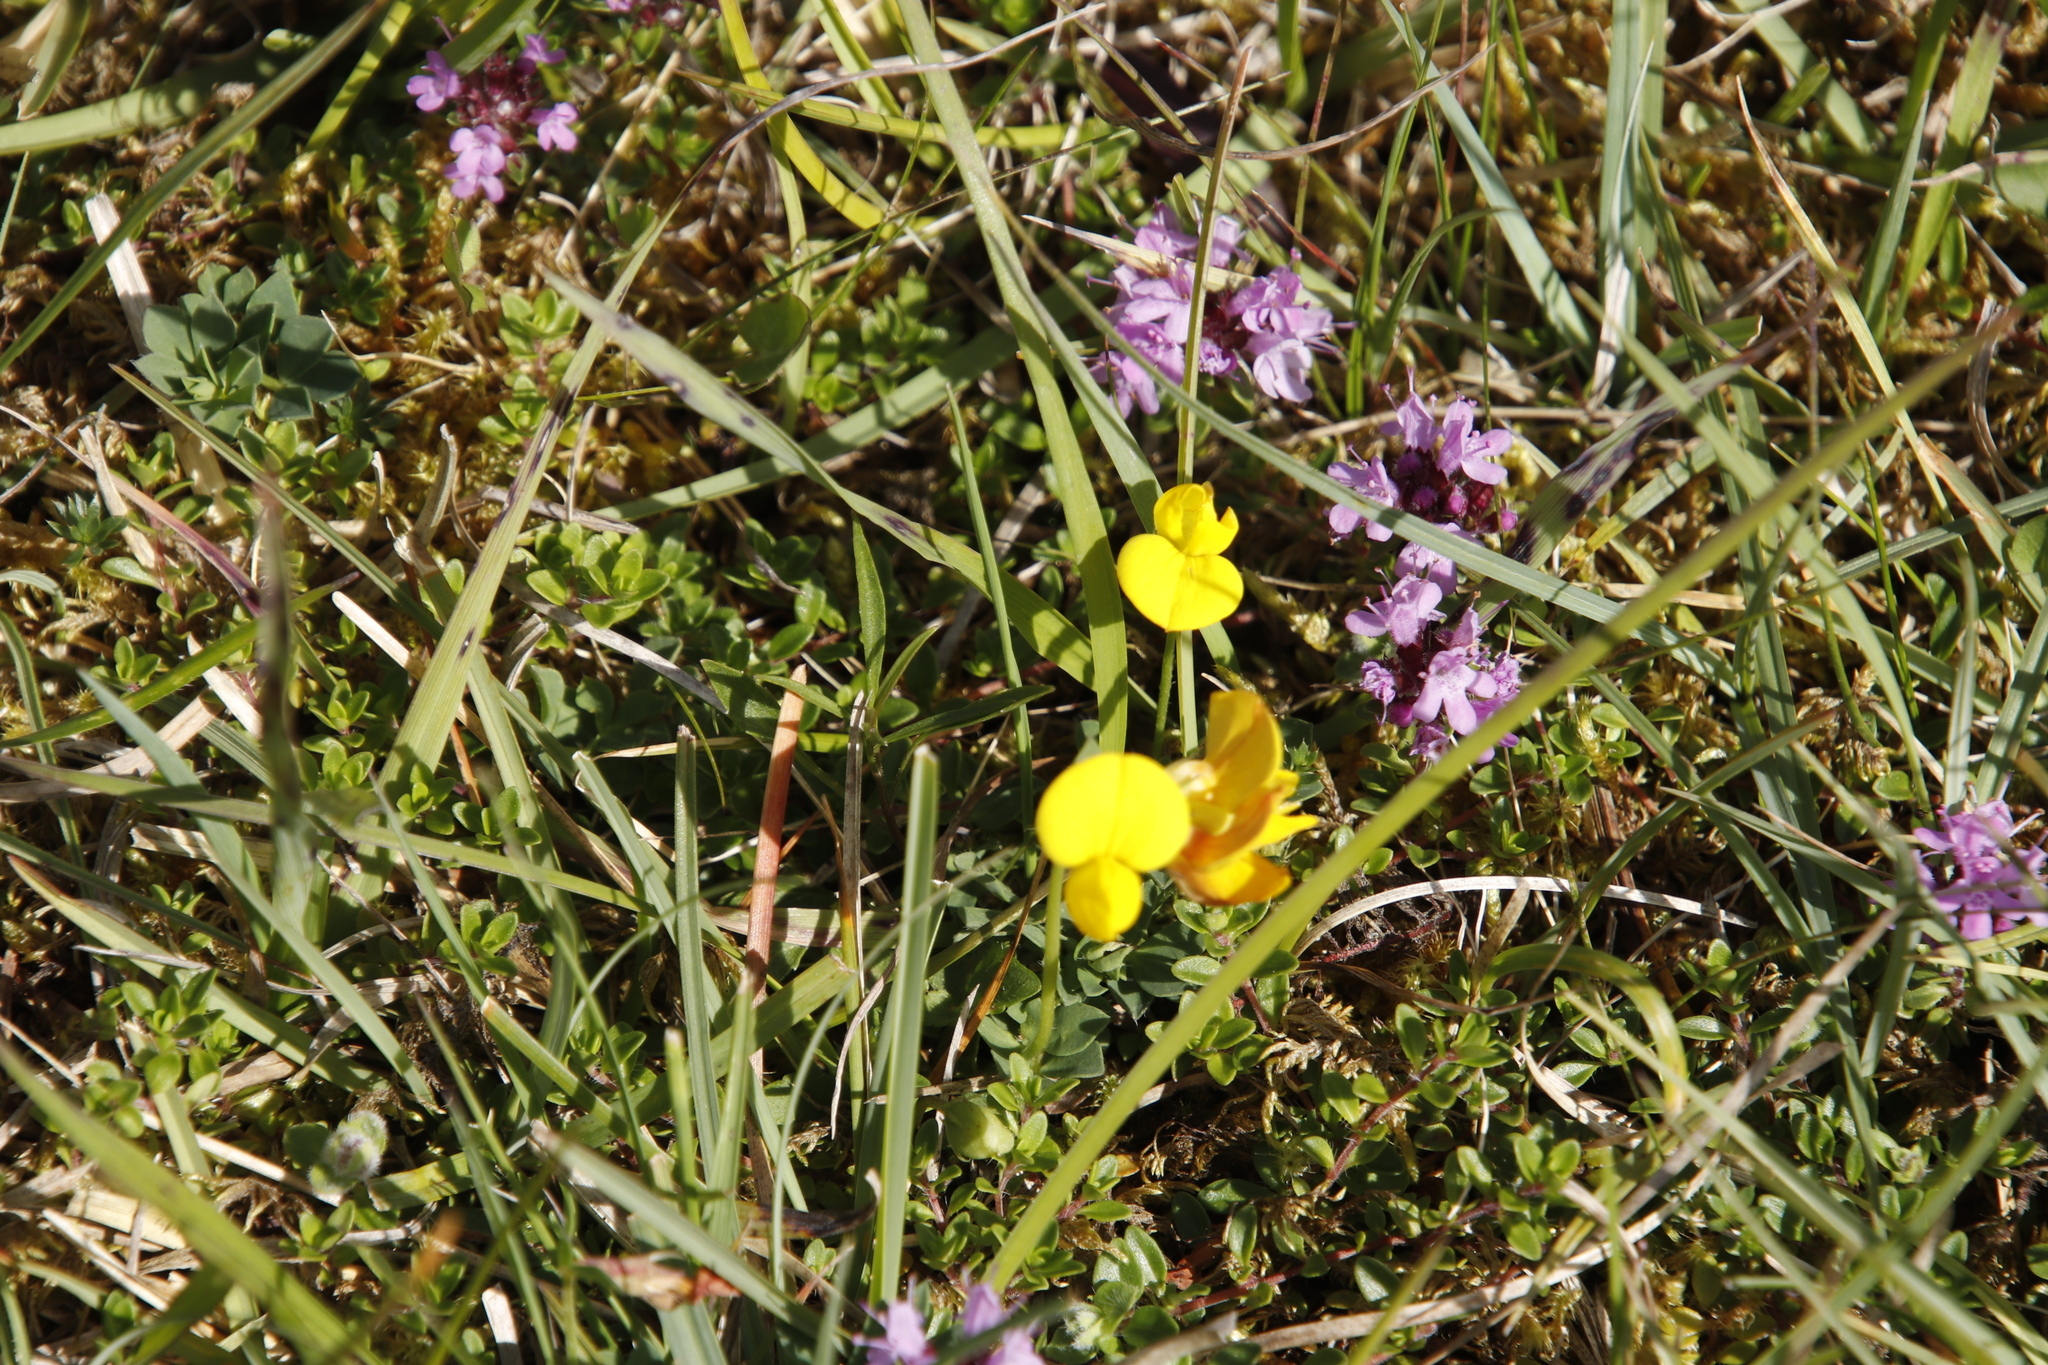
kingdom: Plantae
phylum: Tracheophyta
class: Magnoliopsida
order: Fabales
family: Fabaceae
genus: Lotus
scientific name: Lotus corniculatus
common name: Common bird's-foot-trefoil
